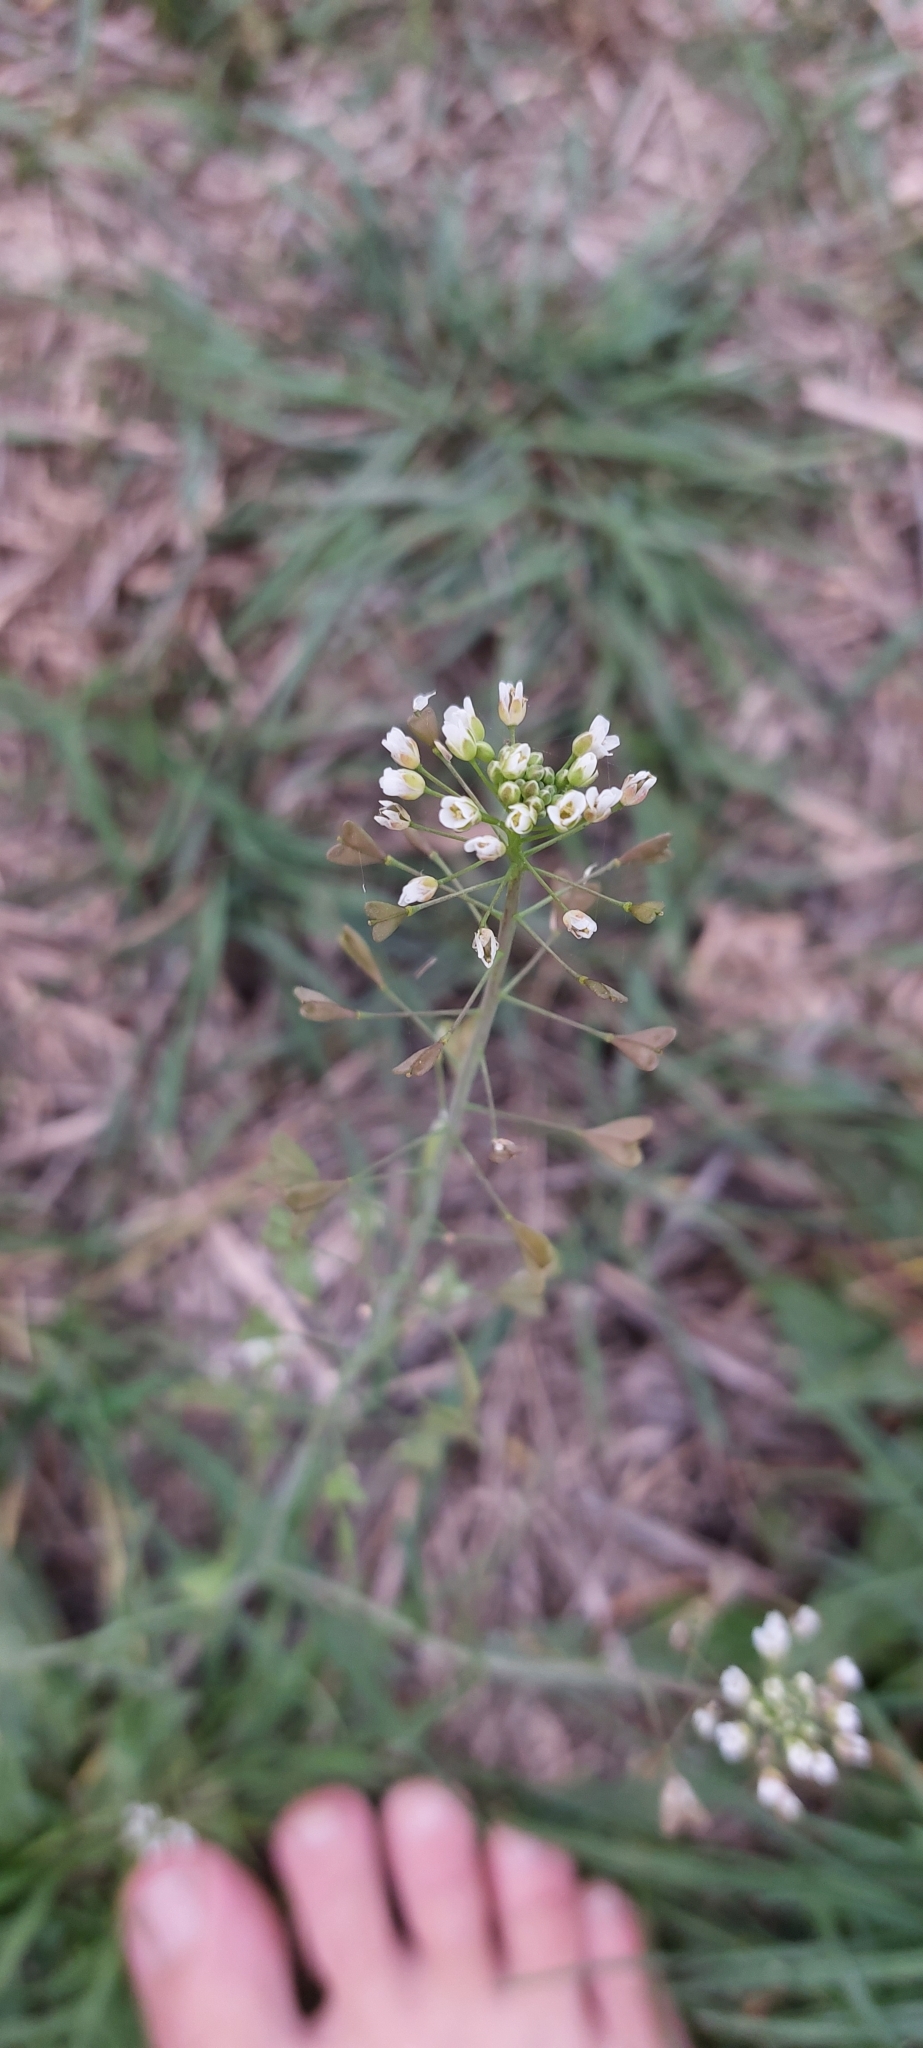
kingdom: Plantae
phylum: Tracheophyta
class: Magnoliopsida
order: Brassicales
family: Brassicaceae
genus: Capsella
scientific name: Capsella bursa-pastoris
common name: Shepherd's purse
